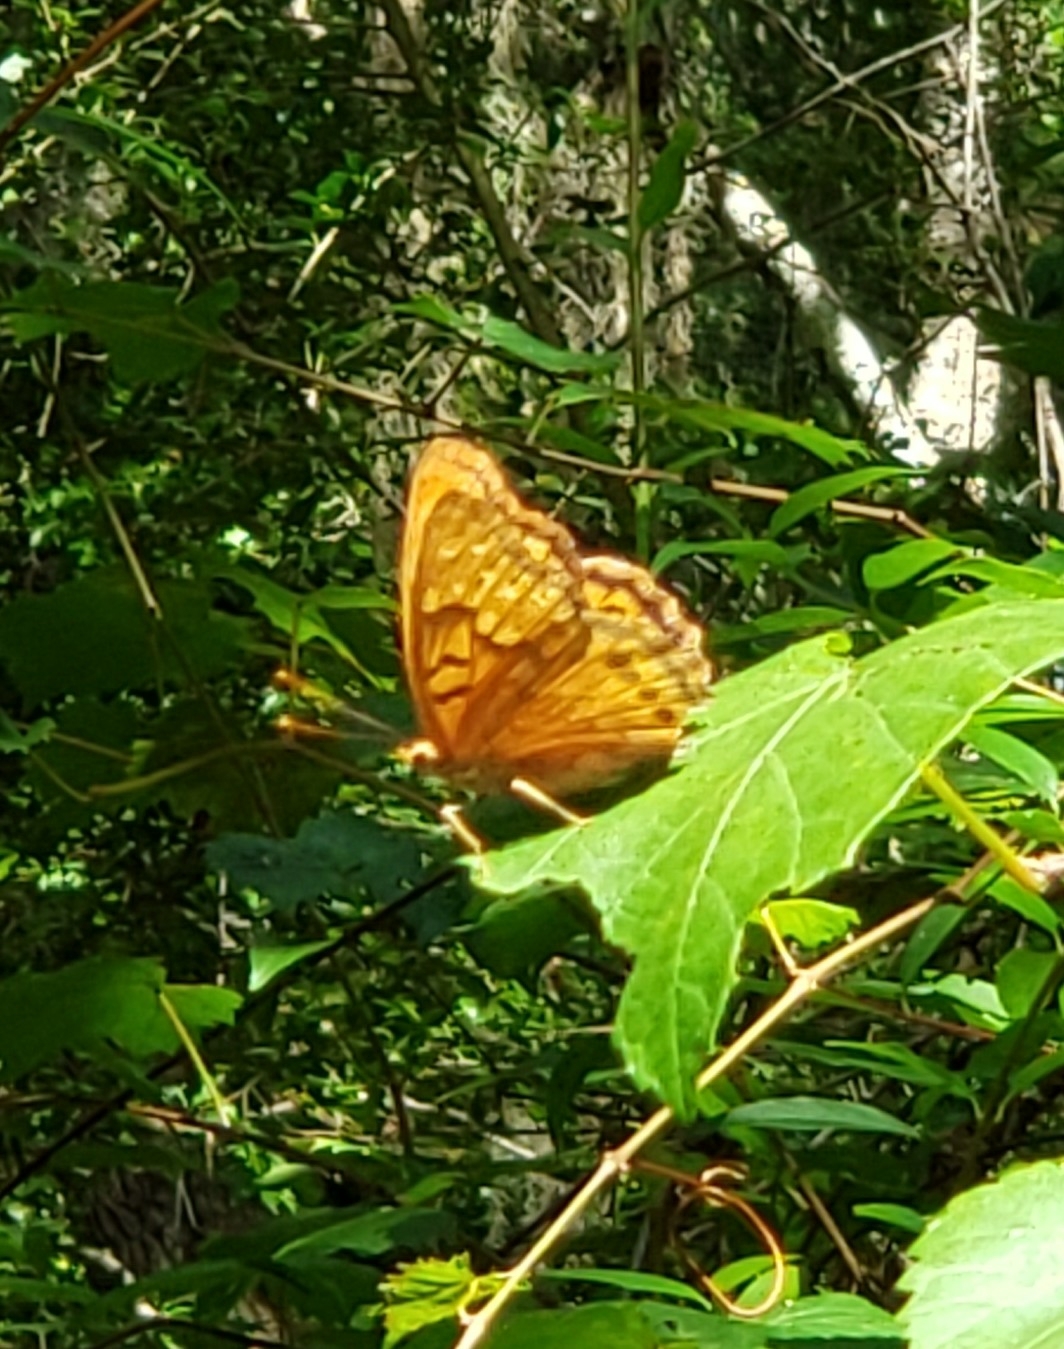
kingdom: Animalia
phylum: Arthropoda
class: Insecta
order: Lepidoptera
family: Nymphalidae
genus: Asterocampa
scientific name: Asterocampa clyton
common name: Tawny emperor
